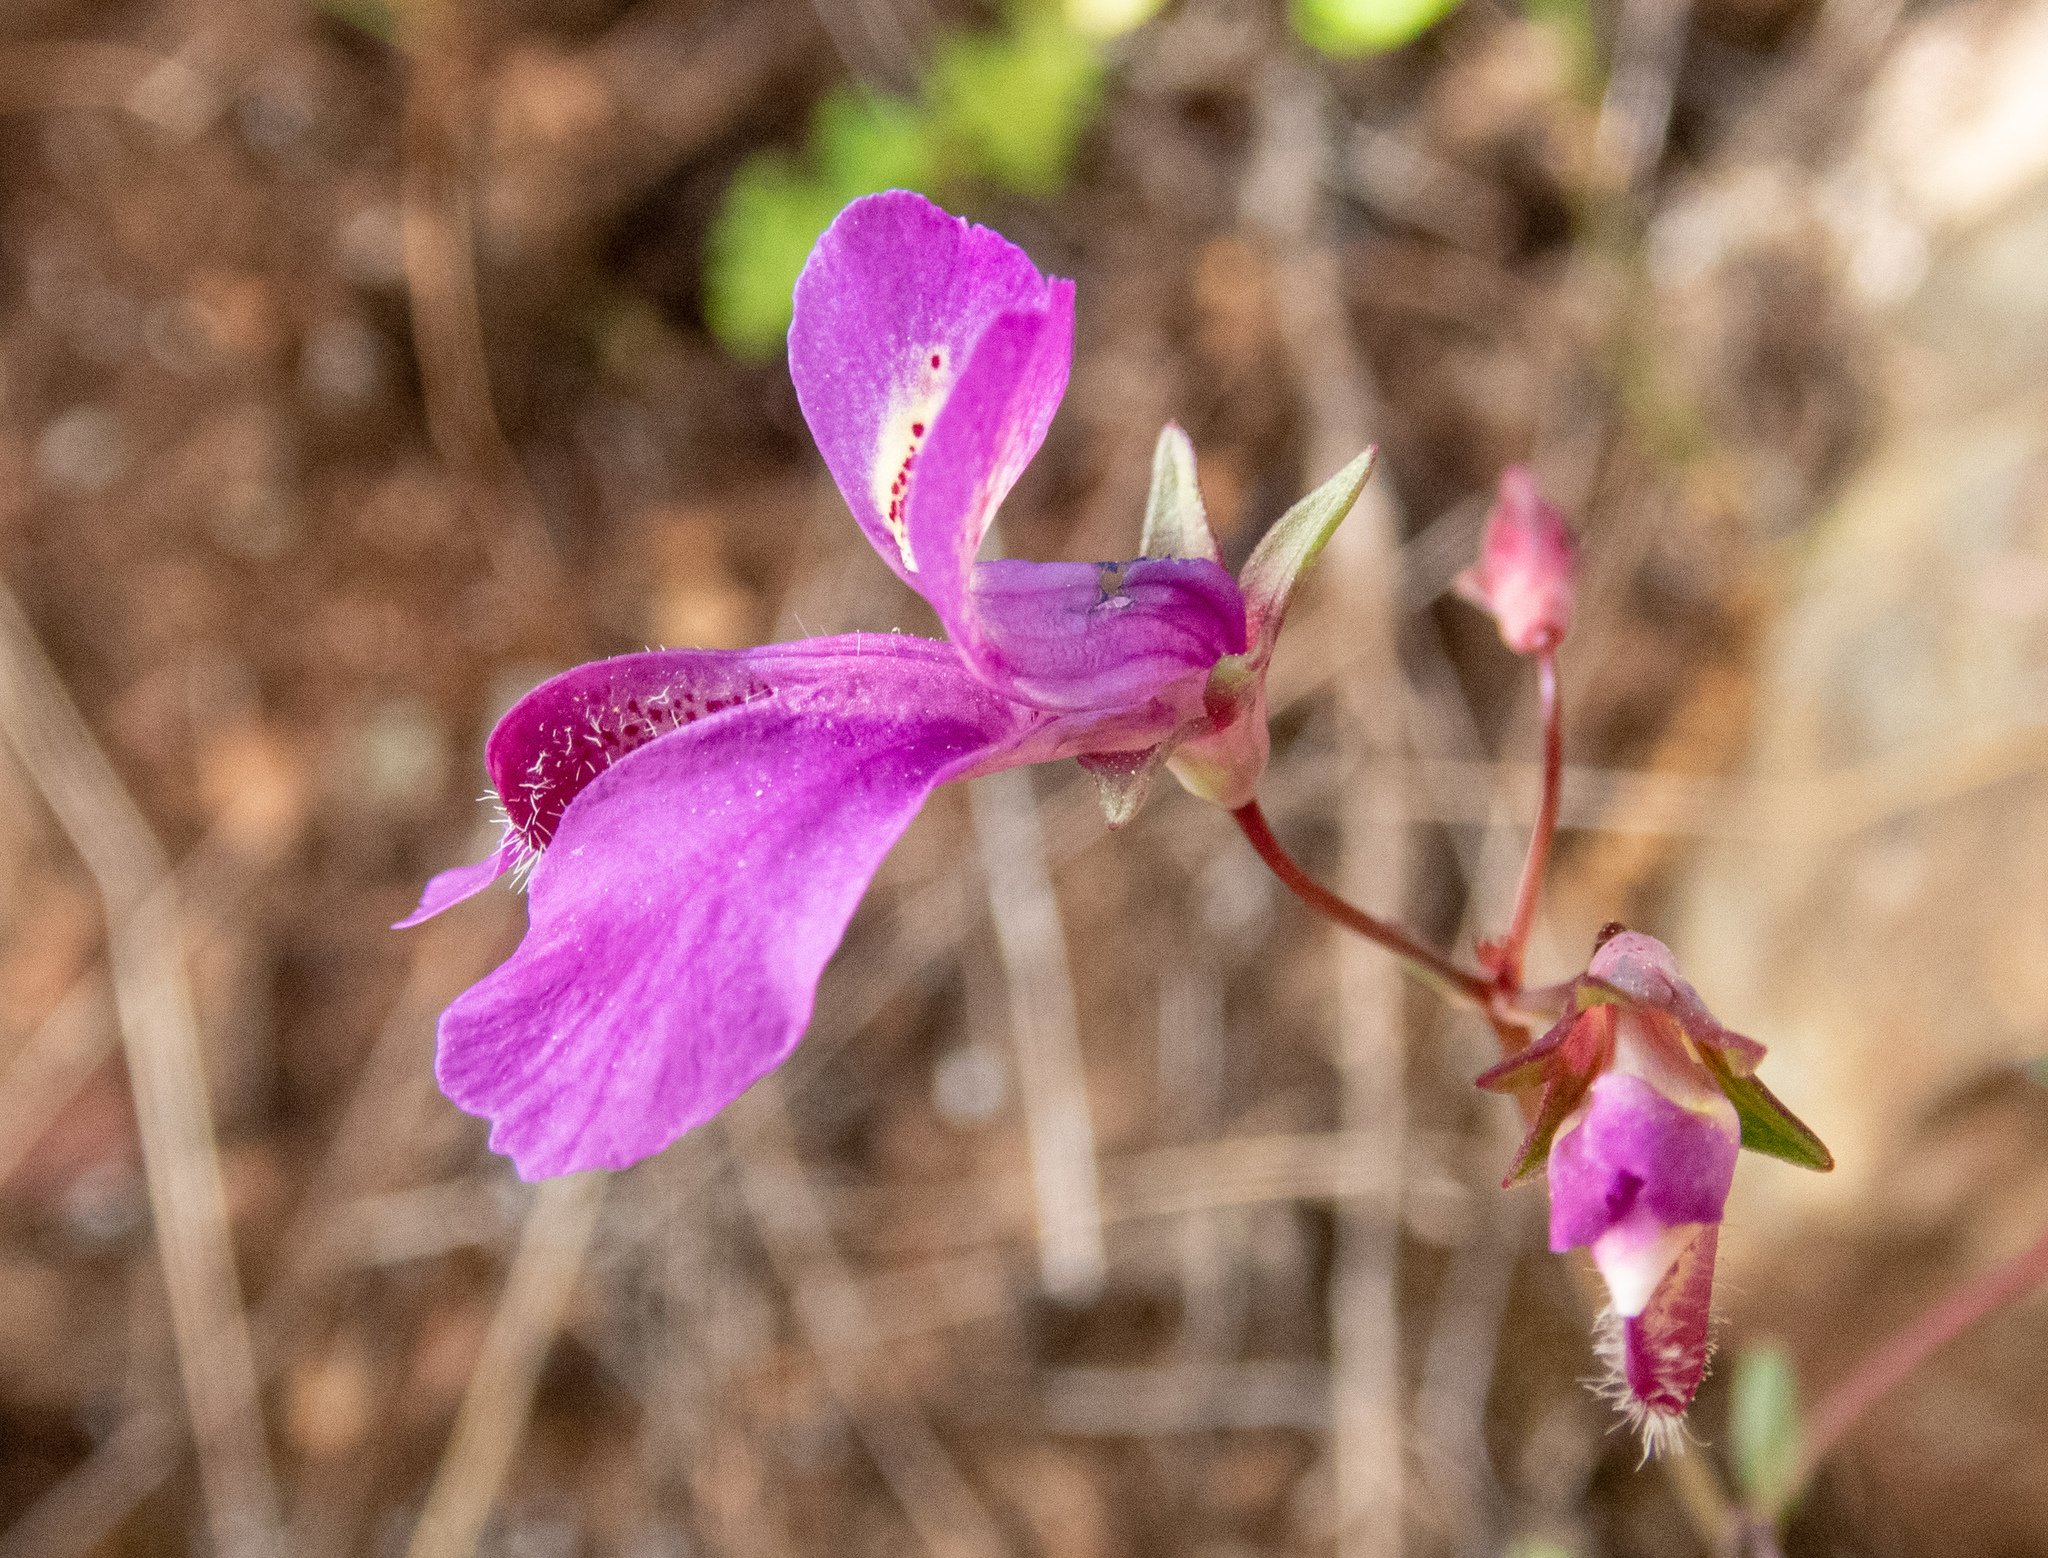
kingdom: Plantae
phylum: Tracheophyta
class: Magnoliopsida
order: Lamiales
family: Plantaginaceae
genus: Collinsia
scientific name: Collinsia sparsiflora
